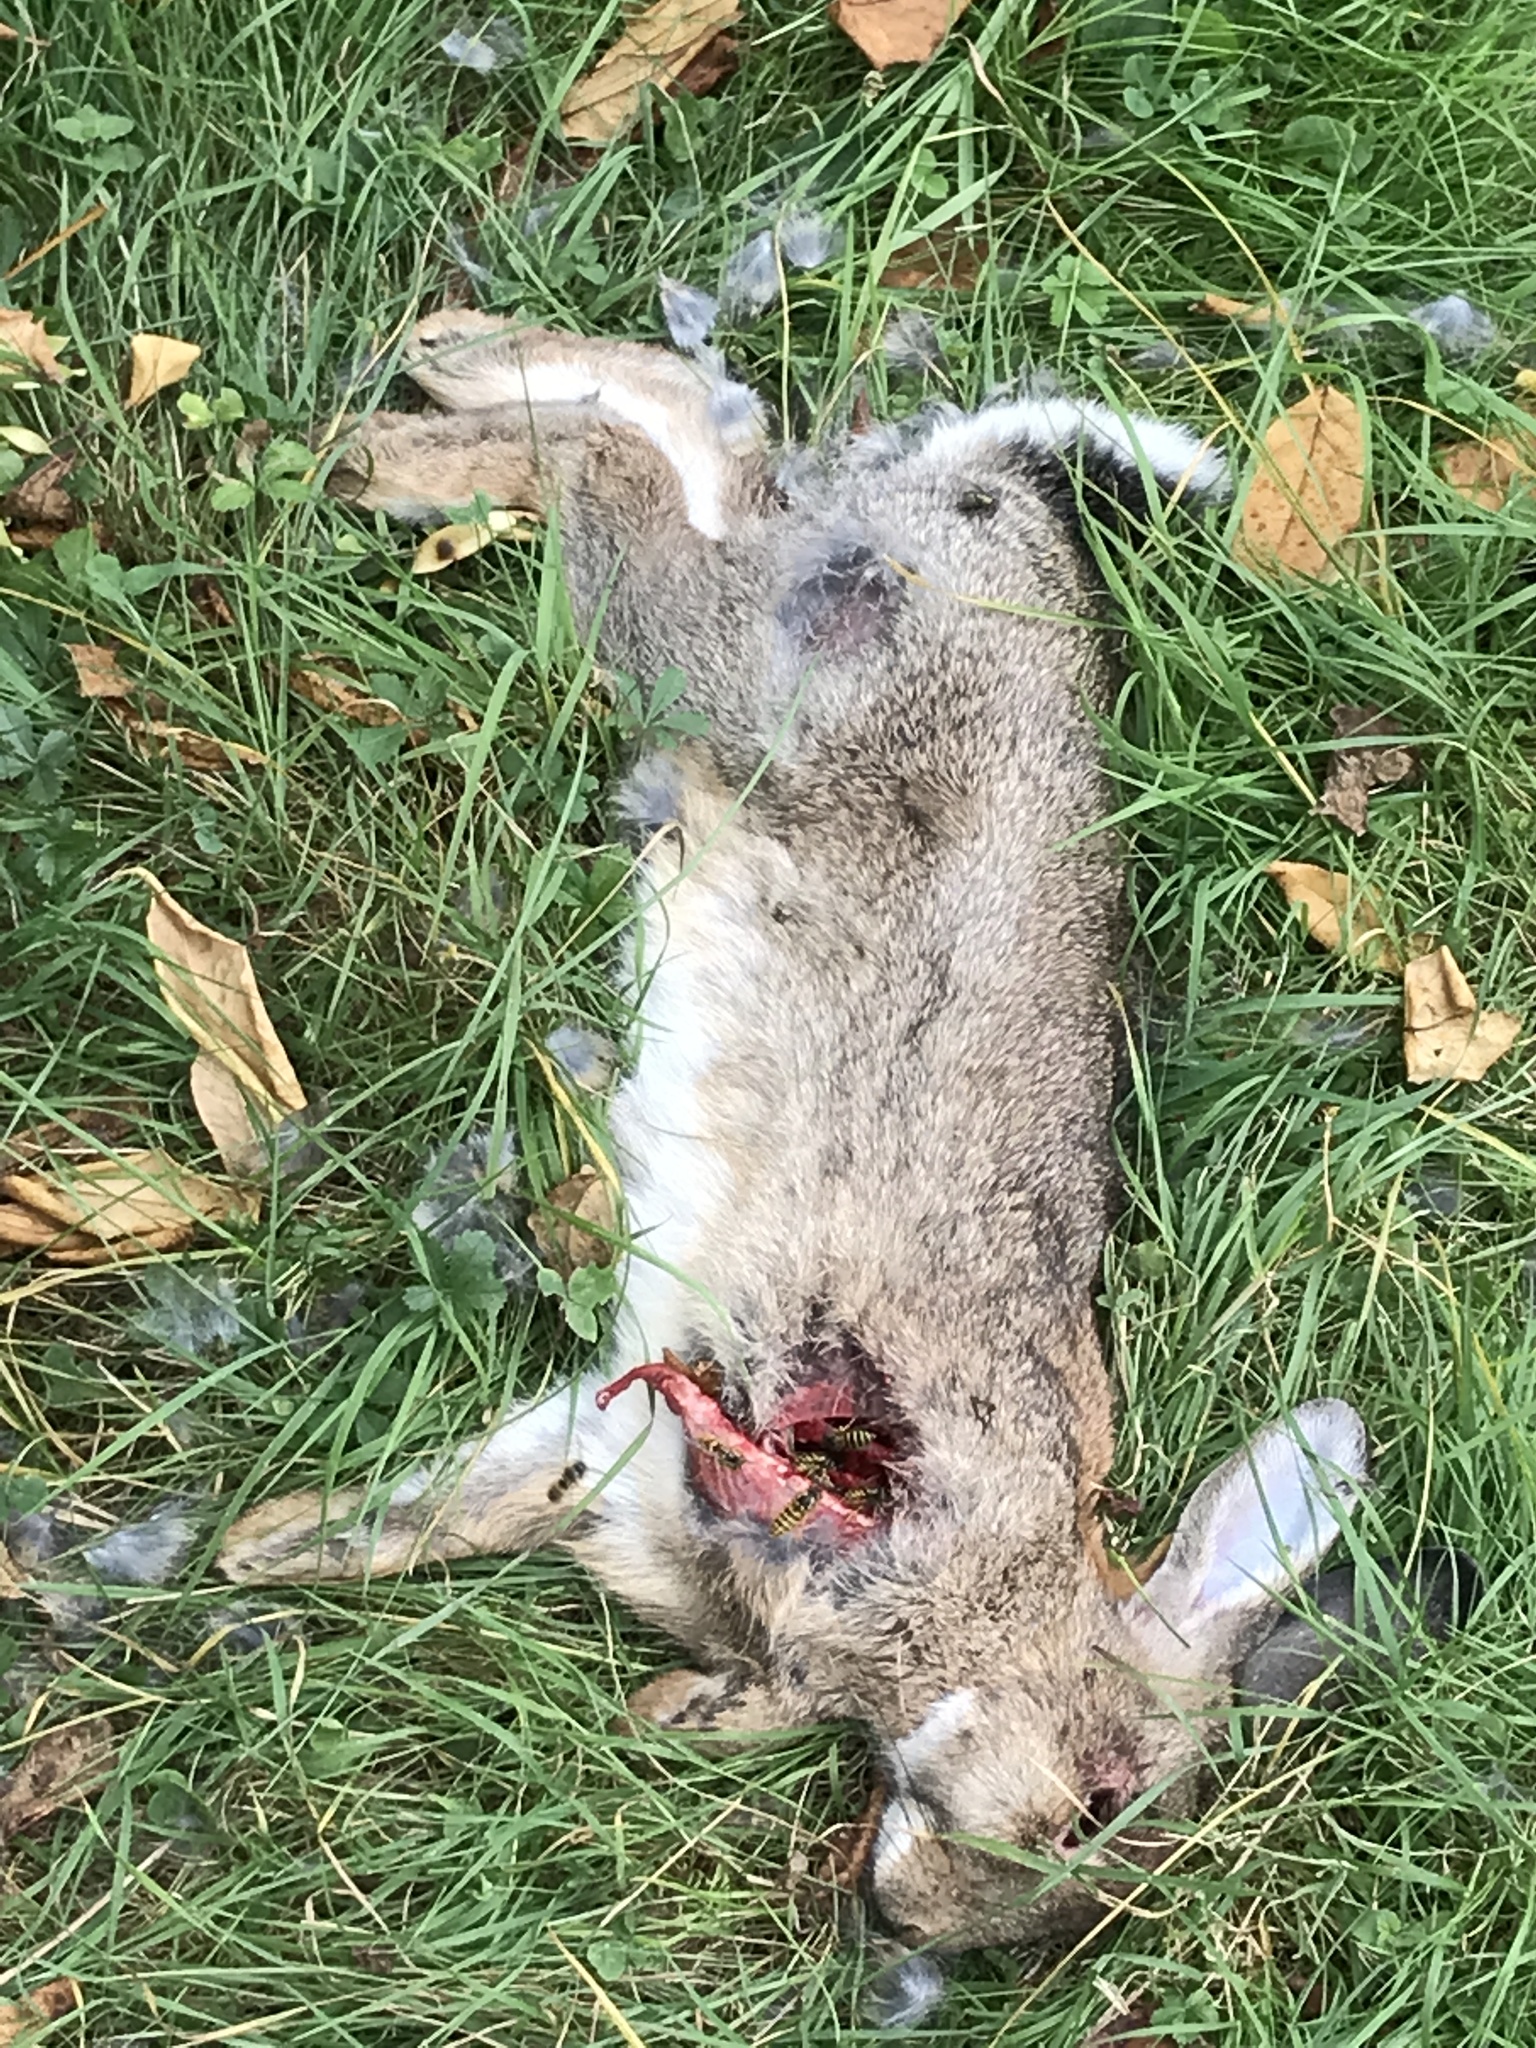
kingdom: Animalia
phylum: Chordata
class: Mammalia
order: Lagomorpha
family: Leporidae
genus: Oryctolagus
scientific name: Oryctolagus cuniculus
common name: European rabbit
